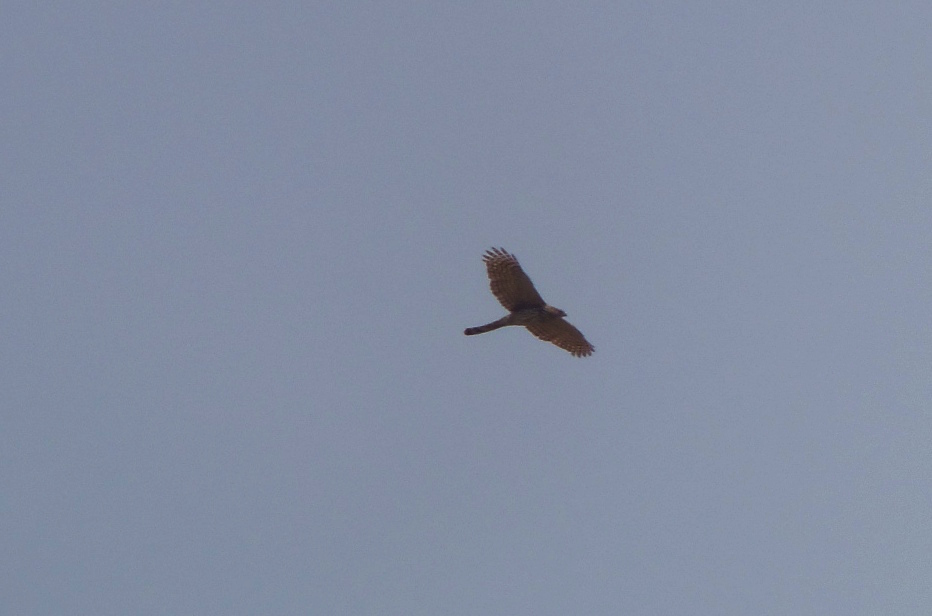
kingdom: Animalia
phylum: Chordata
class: Aves
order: Accipitriformes
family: Accipitridae
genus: Accipiter
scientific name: Accipiter cooperii
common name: Cooper's hawk
